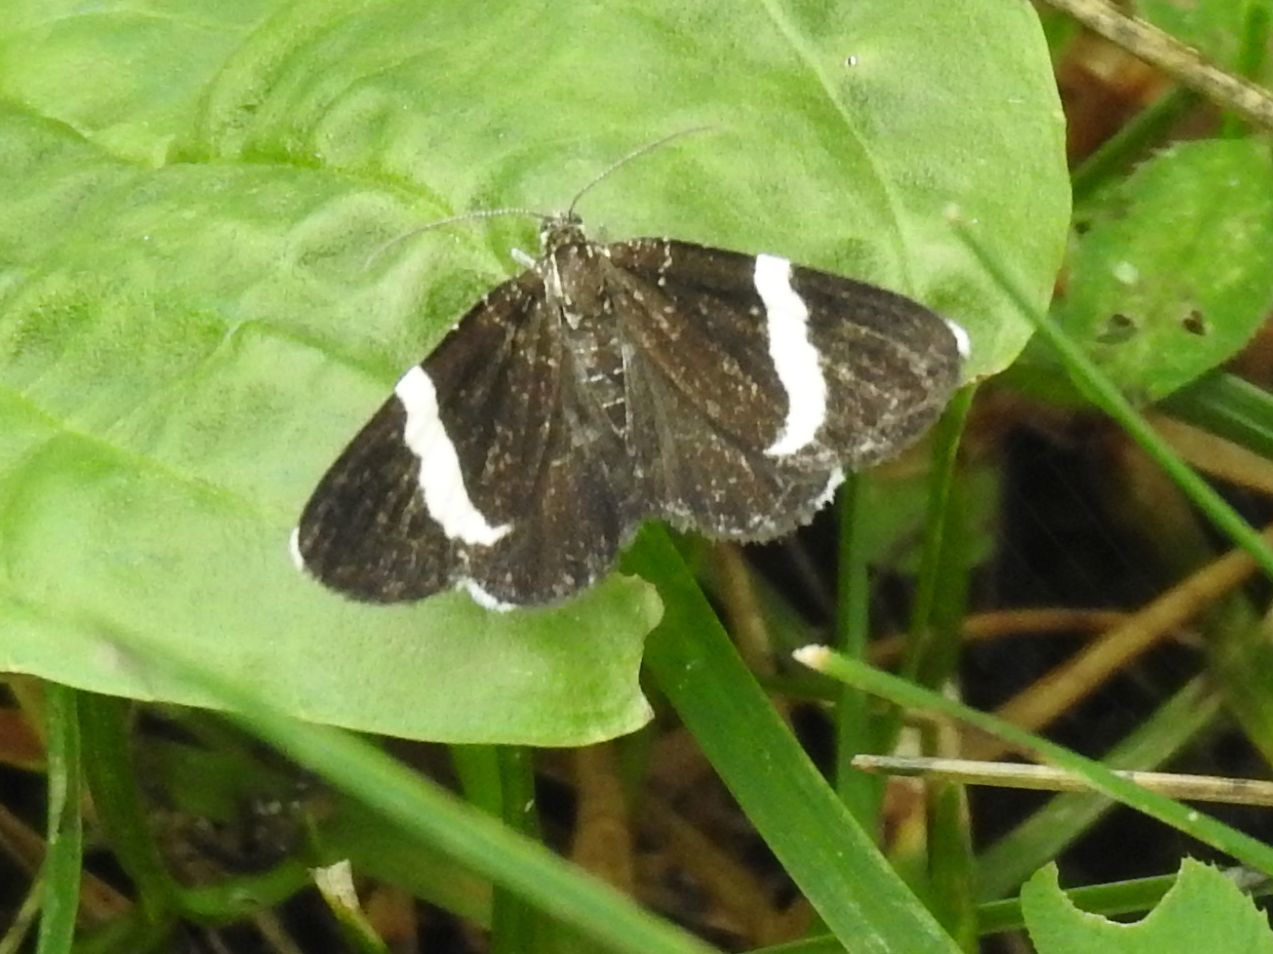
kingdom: Animalia
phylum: Arthropoda
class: Insecta
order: Lepidoptera
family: Geometridae
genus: Trichodezia
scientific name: Trichodezia albovittata
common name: White striped black
